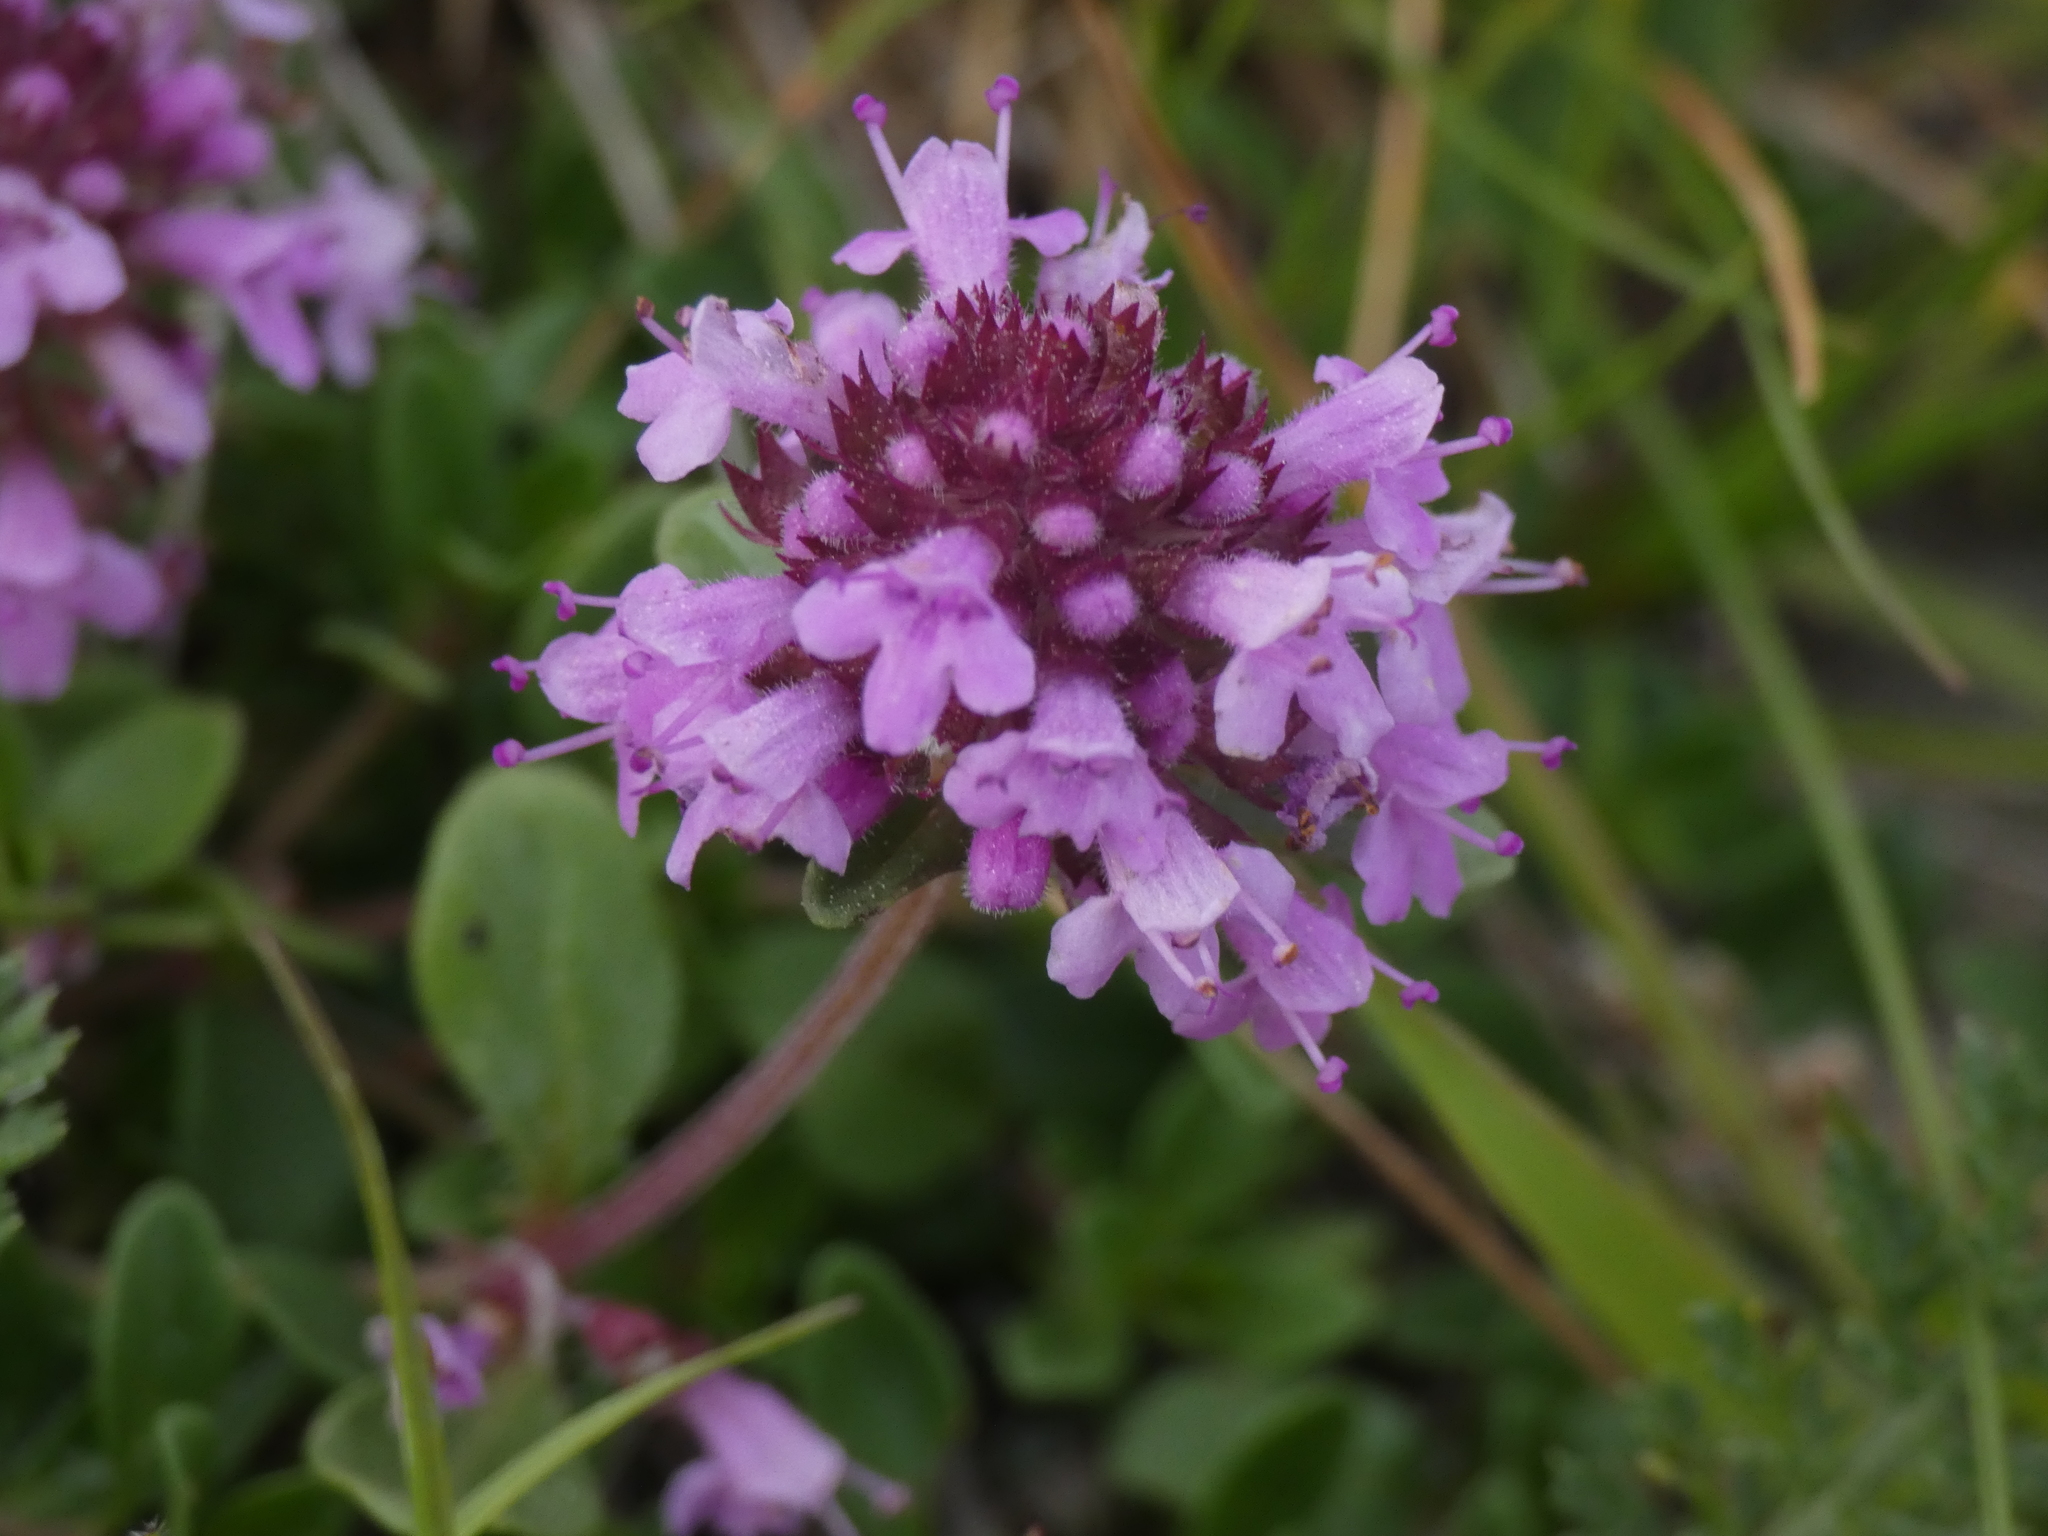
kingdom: Plantae
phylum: Tracheophyta
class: Magnoliopsida
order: Lamiales
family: Lamiaceae
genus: Thymus
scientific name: Thymus pulegioides
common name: Large thyme
